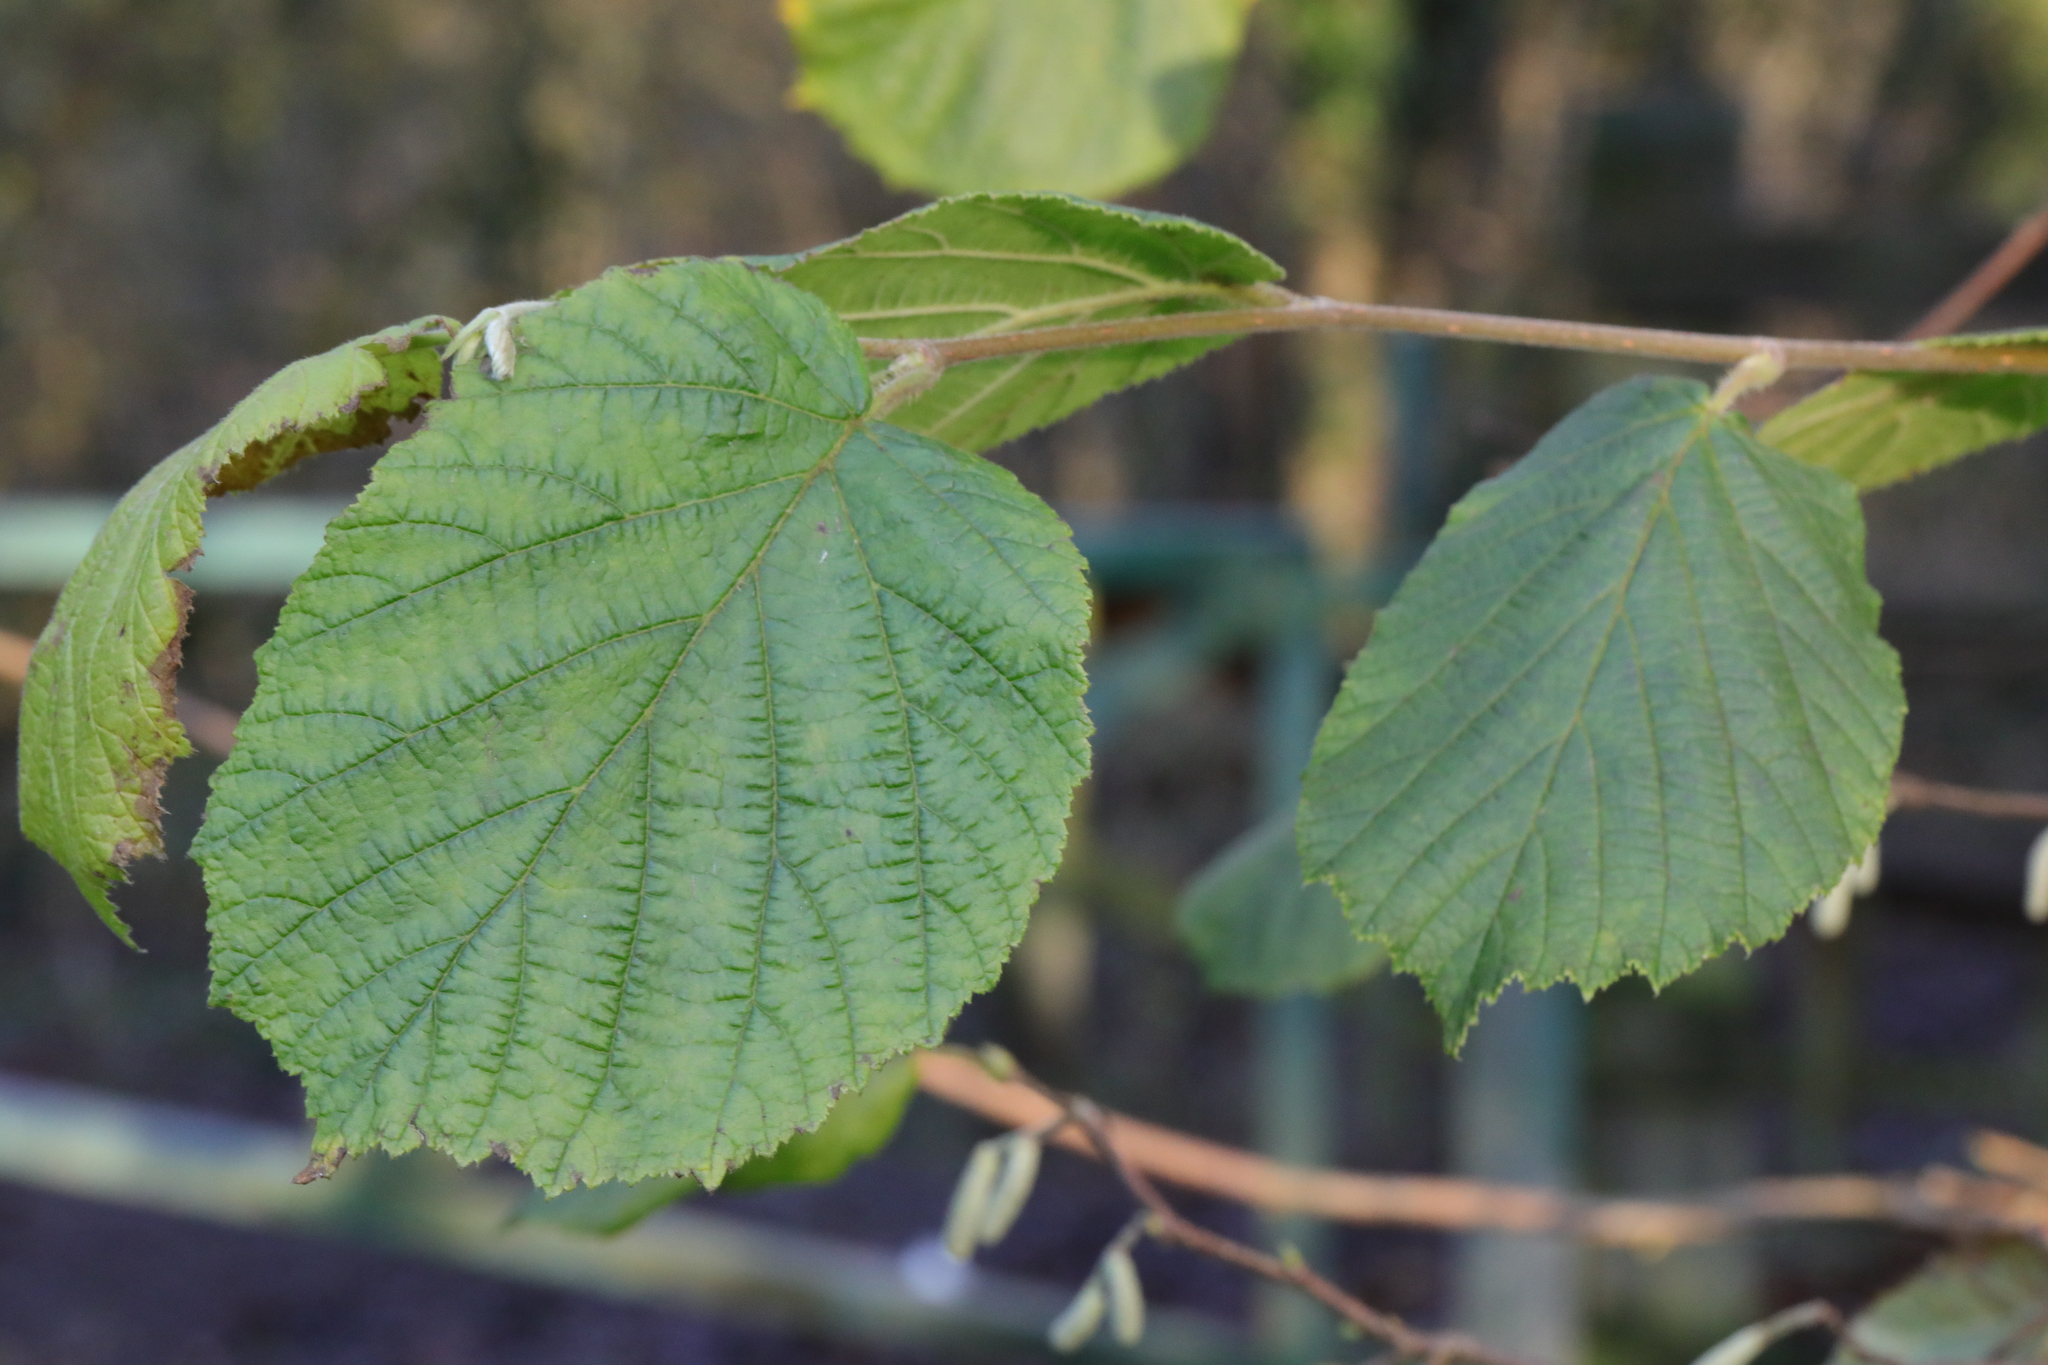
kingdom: Plantae
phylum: Tracheophyta
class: Magnoliopsida
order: Fagales
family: Betulaceae
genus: Corylus
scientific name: Corylus avellana
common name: European hazel
